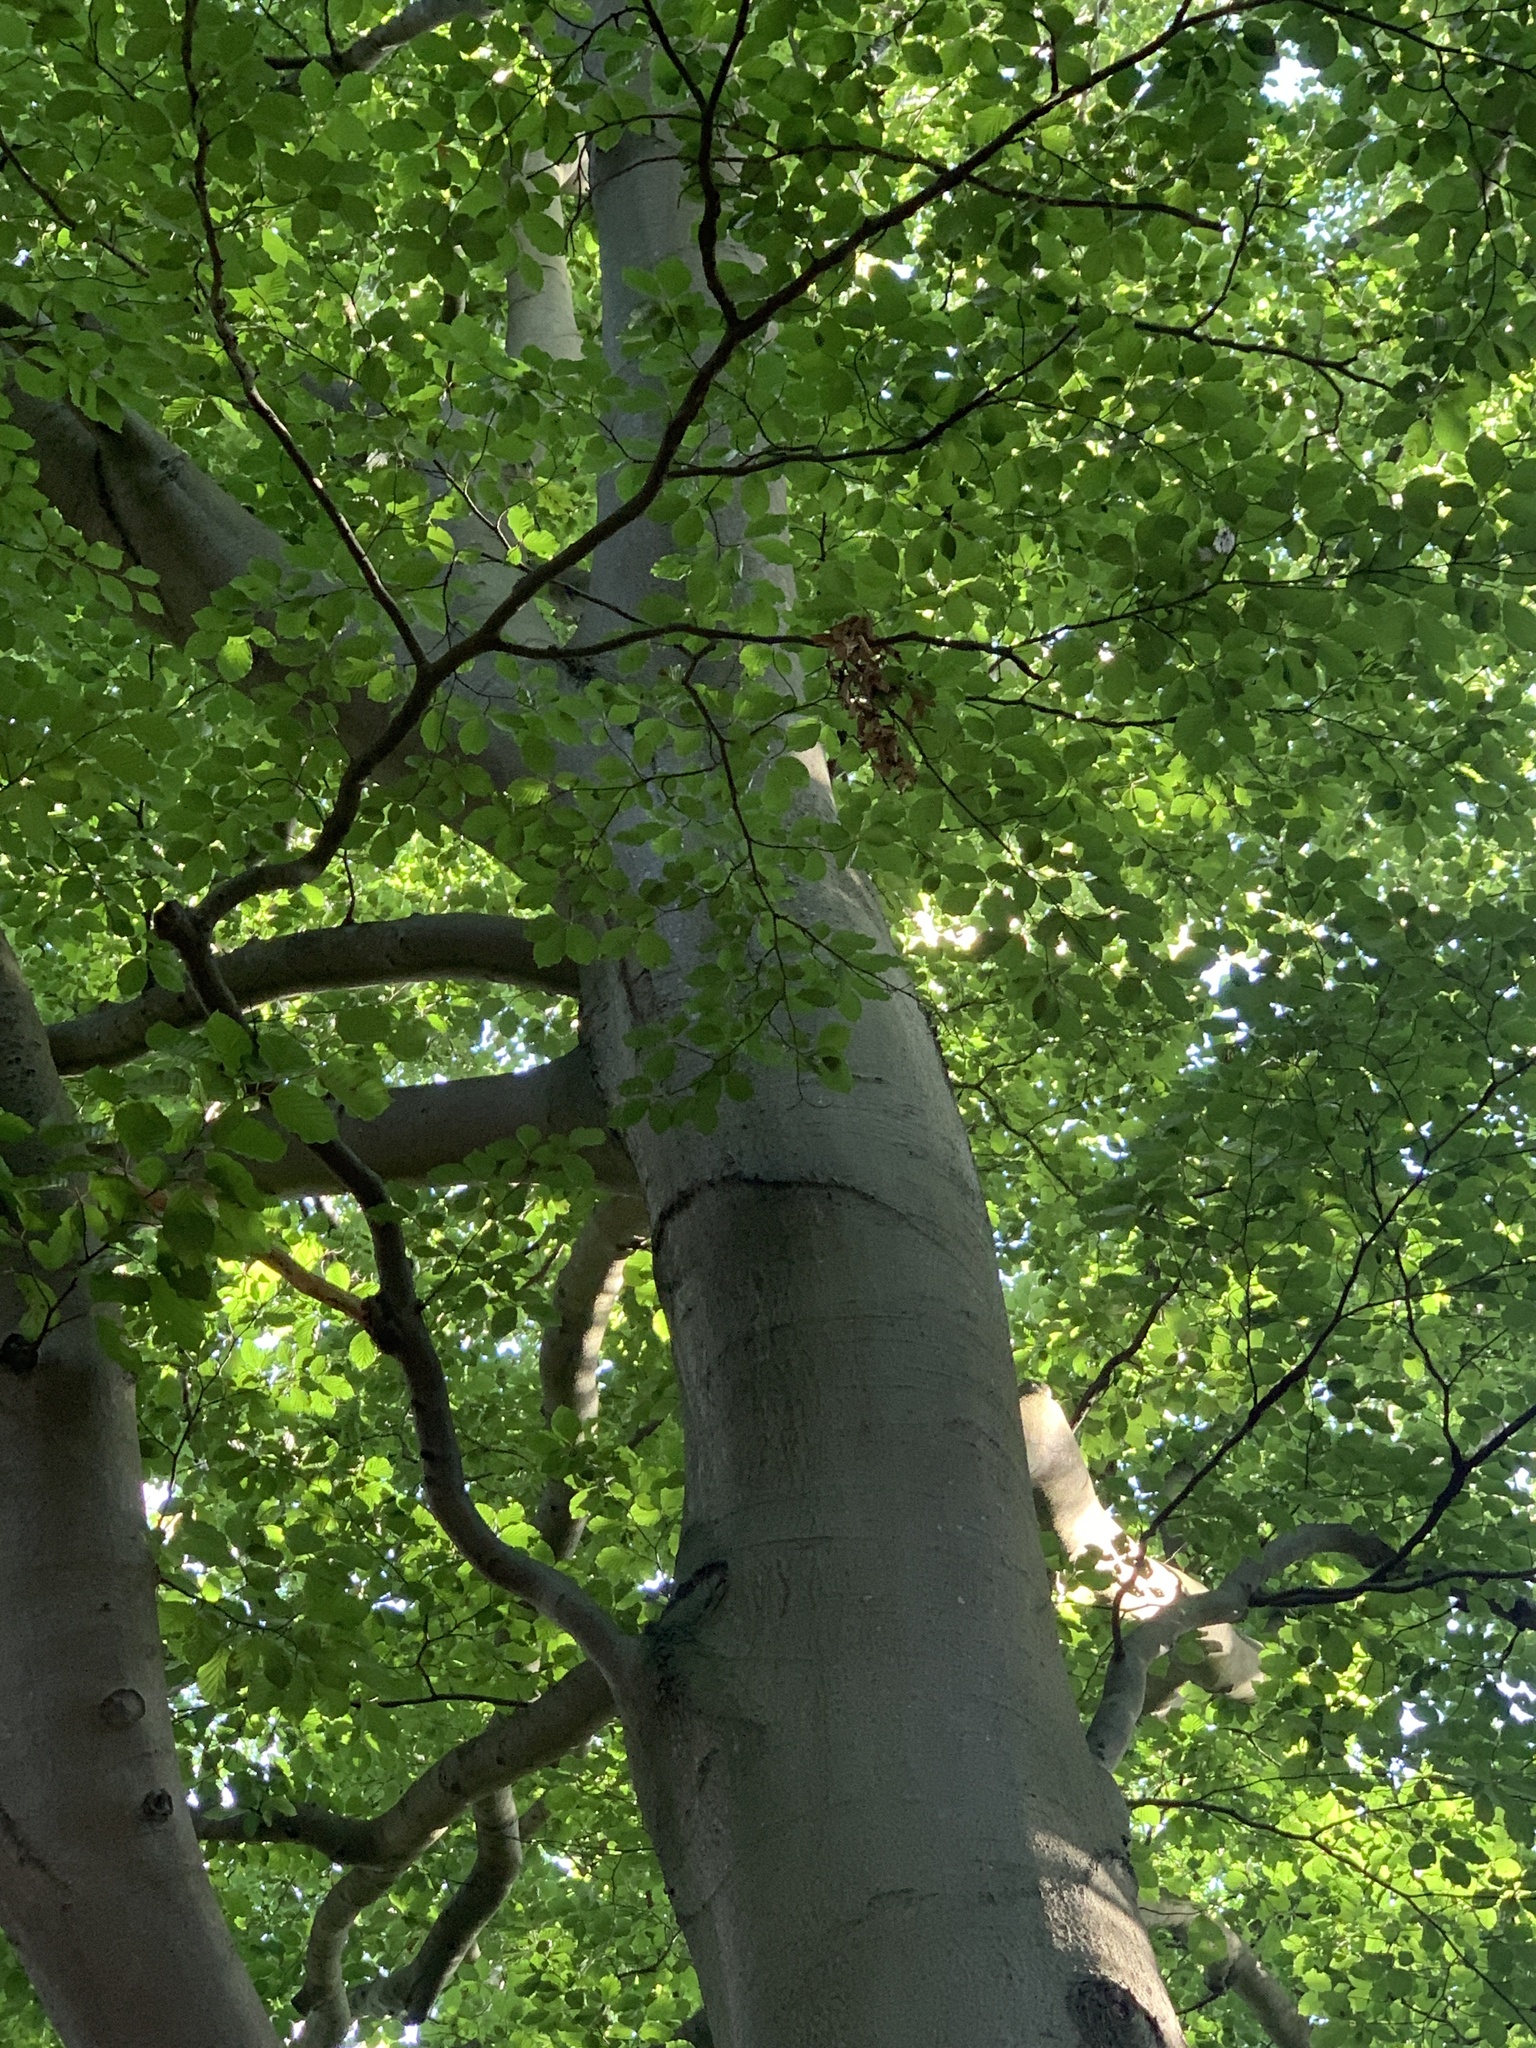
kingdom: Plantae
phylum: Tracheophyta
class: Magnoliopsida
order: Fagales
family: Fagaceae
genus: Fagus
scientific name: Fagus sylvatica
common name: Beech
